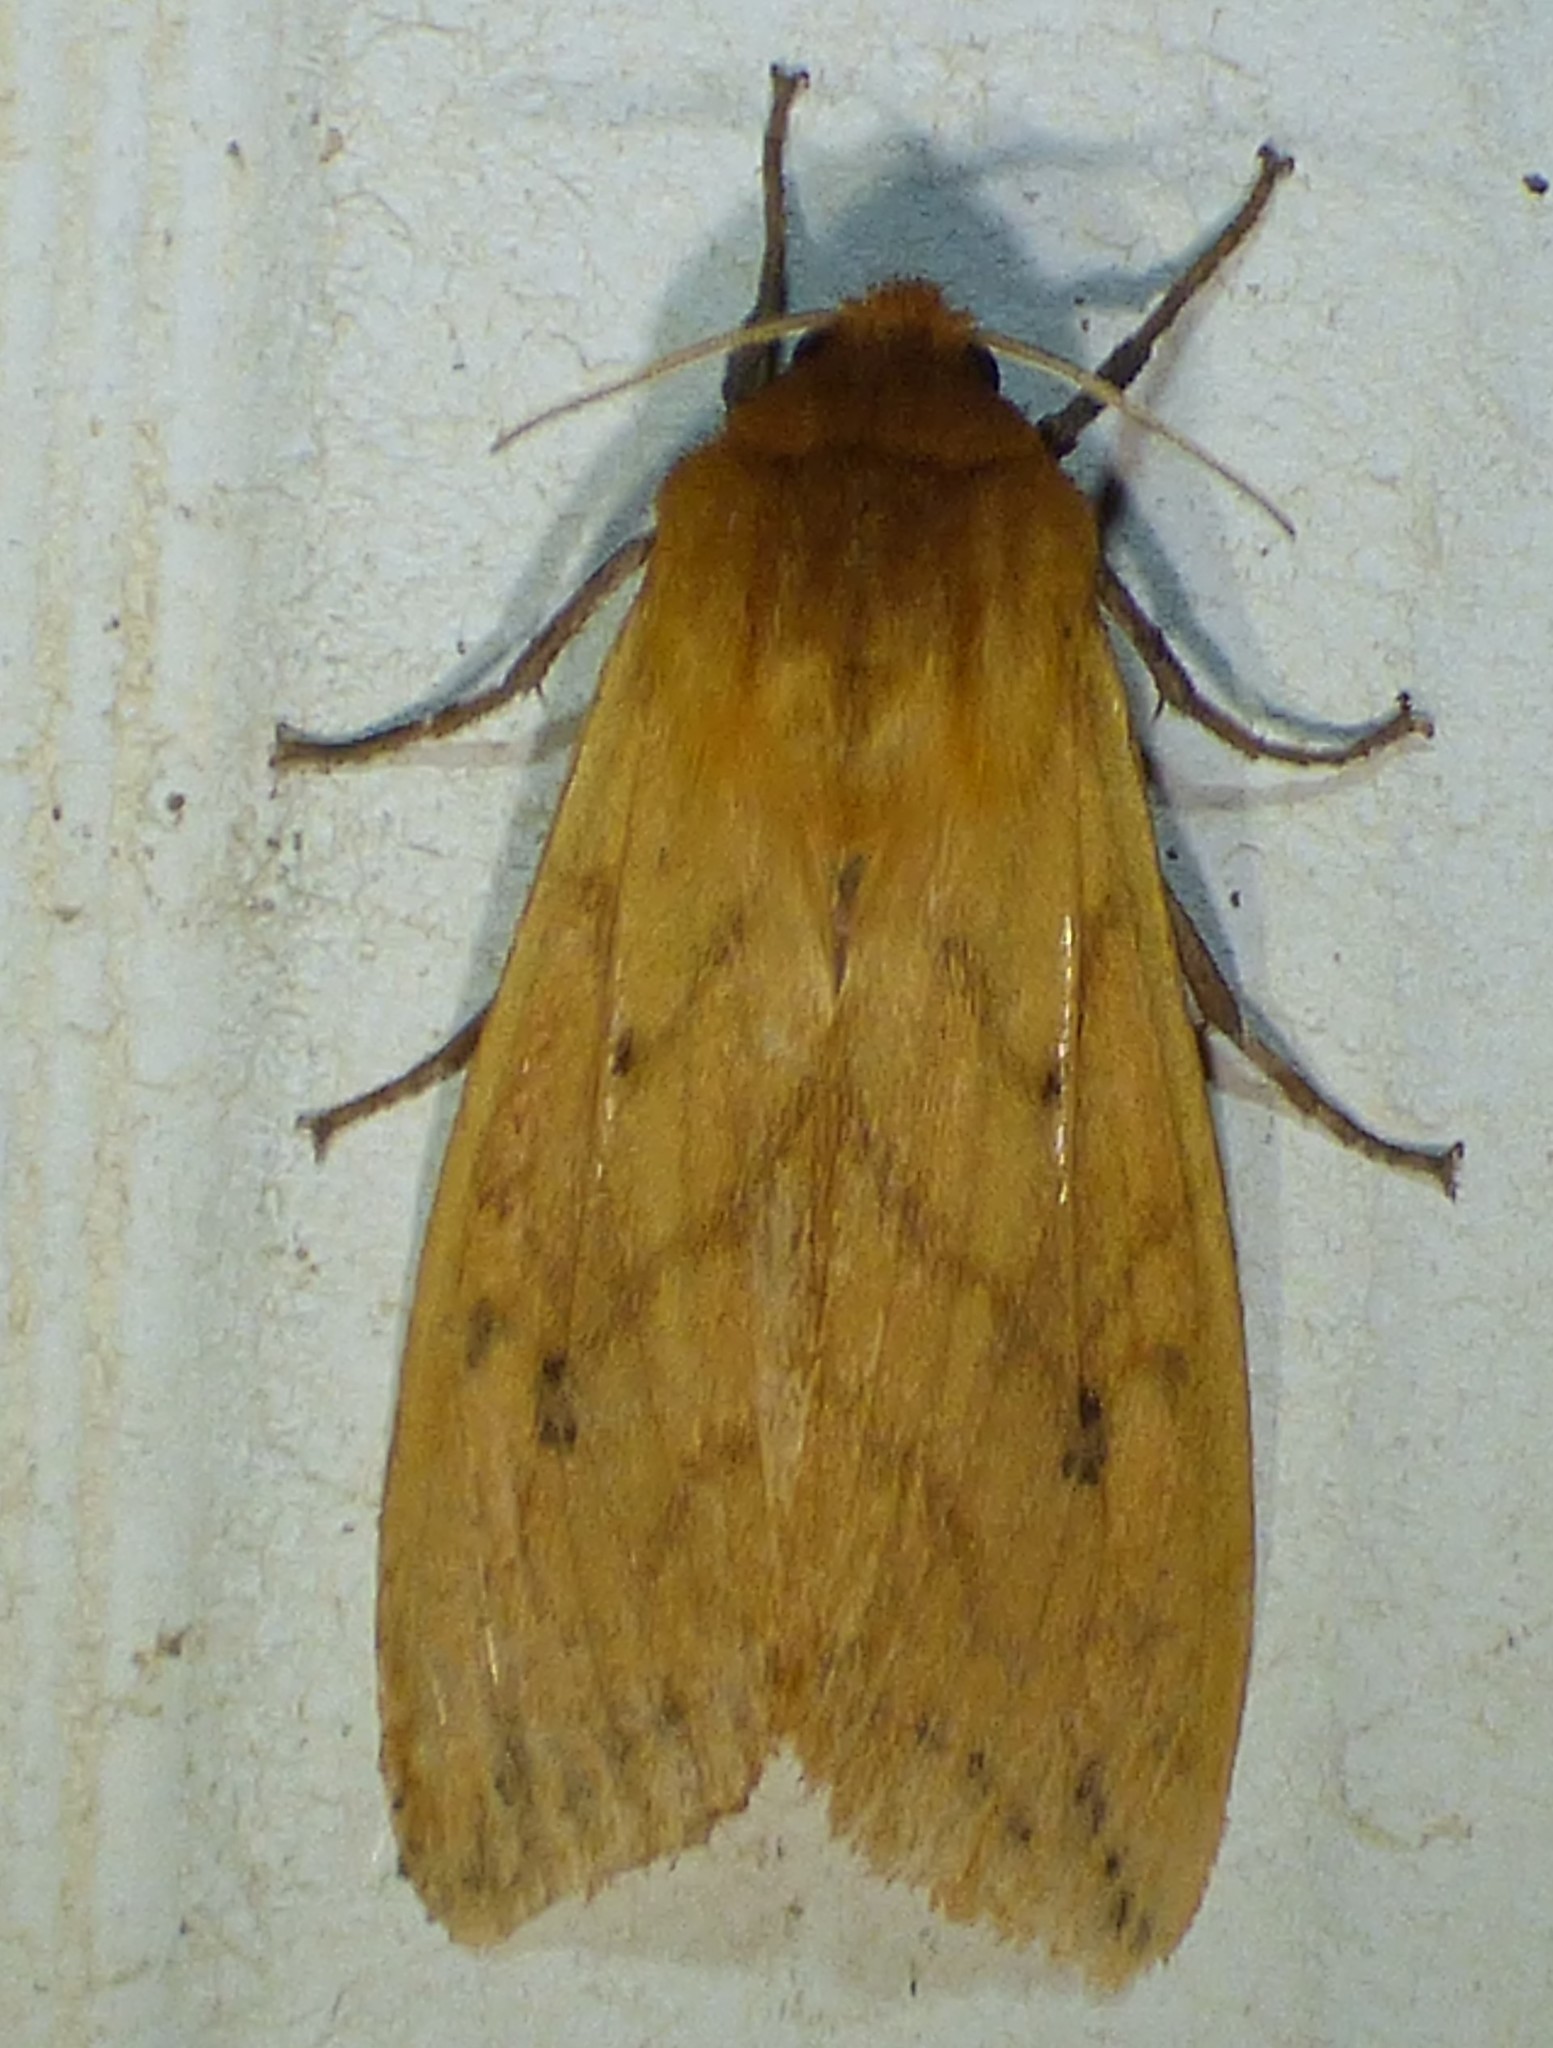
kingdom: Animalia
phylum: Arthropoda
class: Insecta
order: Lepidoptera
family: Erebidae
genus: Pyrrharctia
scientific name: Pyrrharctia isabella
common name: Isabella tiger moth
